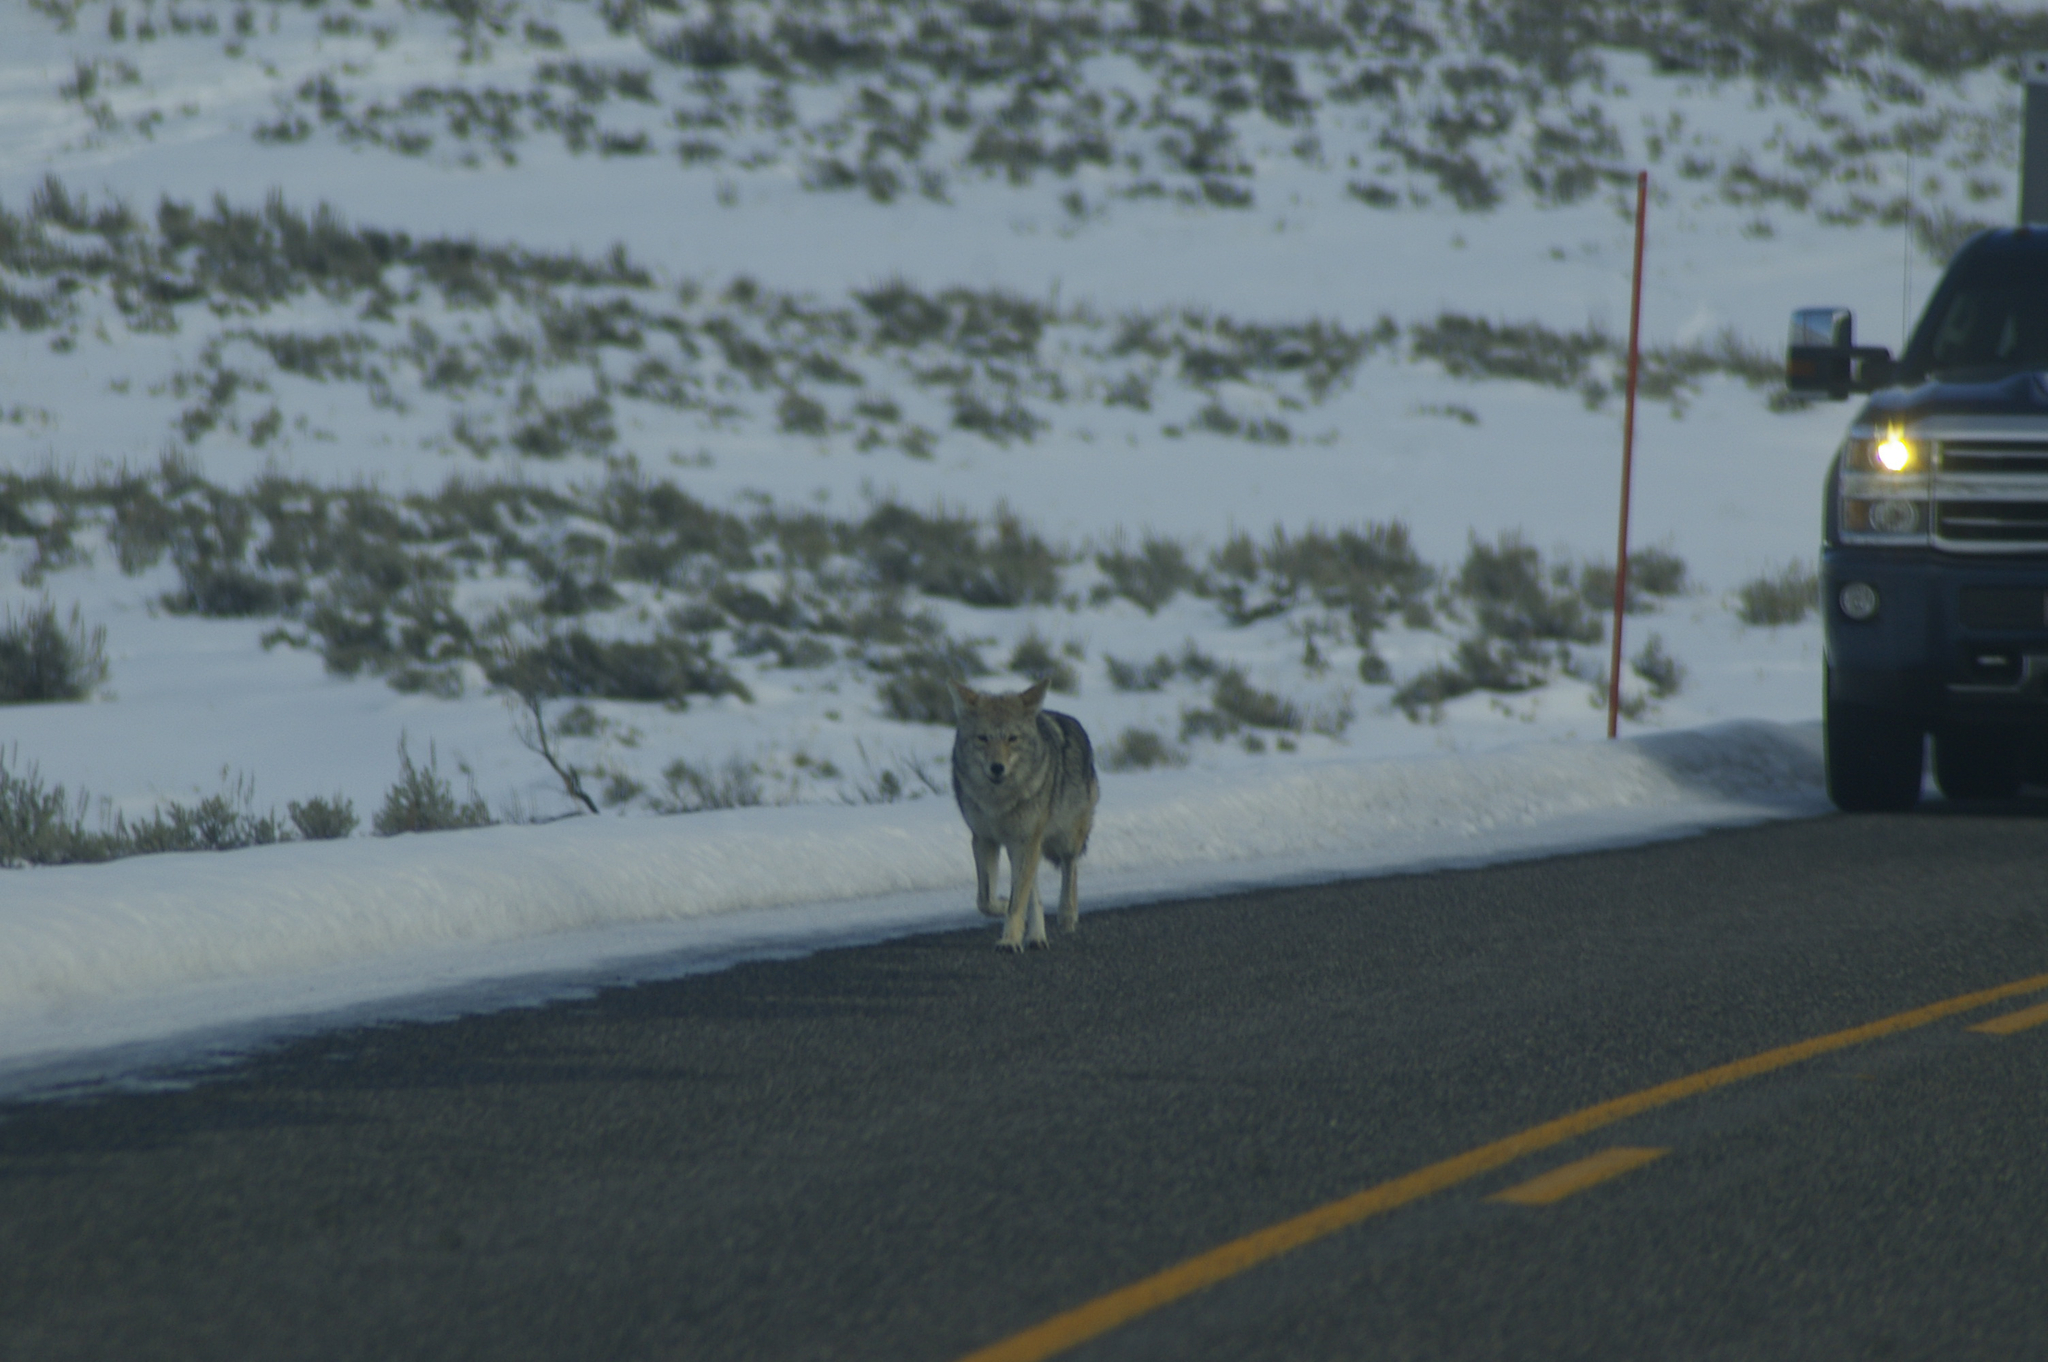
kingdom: Animalia
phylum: Chordata
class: Mammalia
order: Carnivora
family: Canidae
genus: Canis
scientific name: Canis latrans
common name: Coyote
